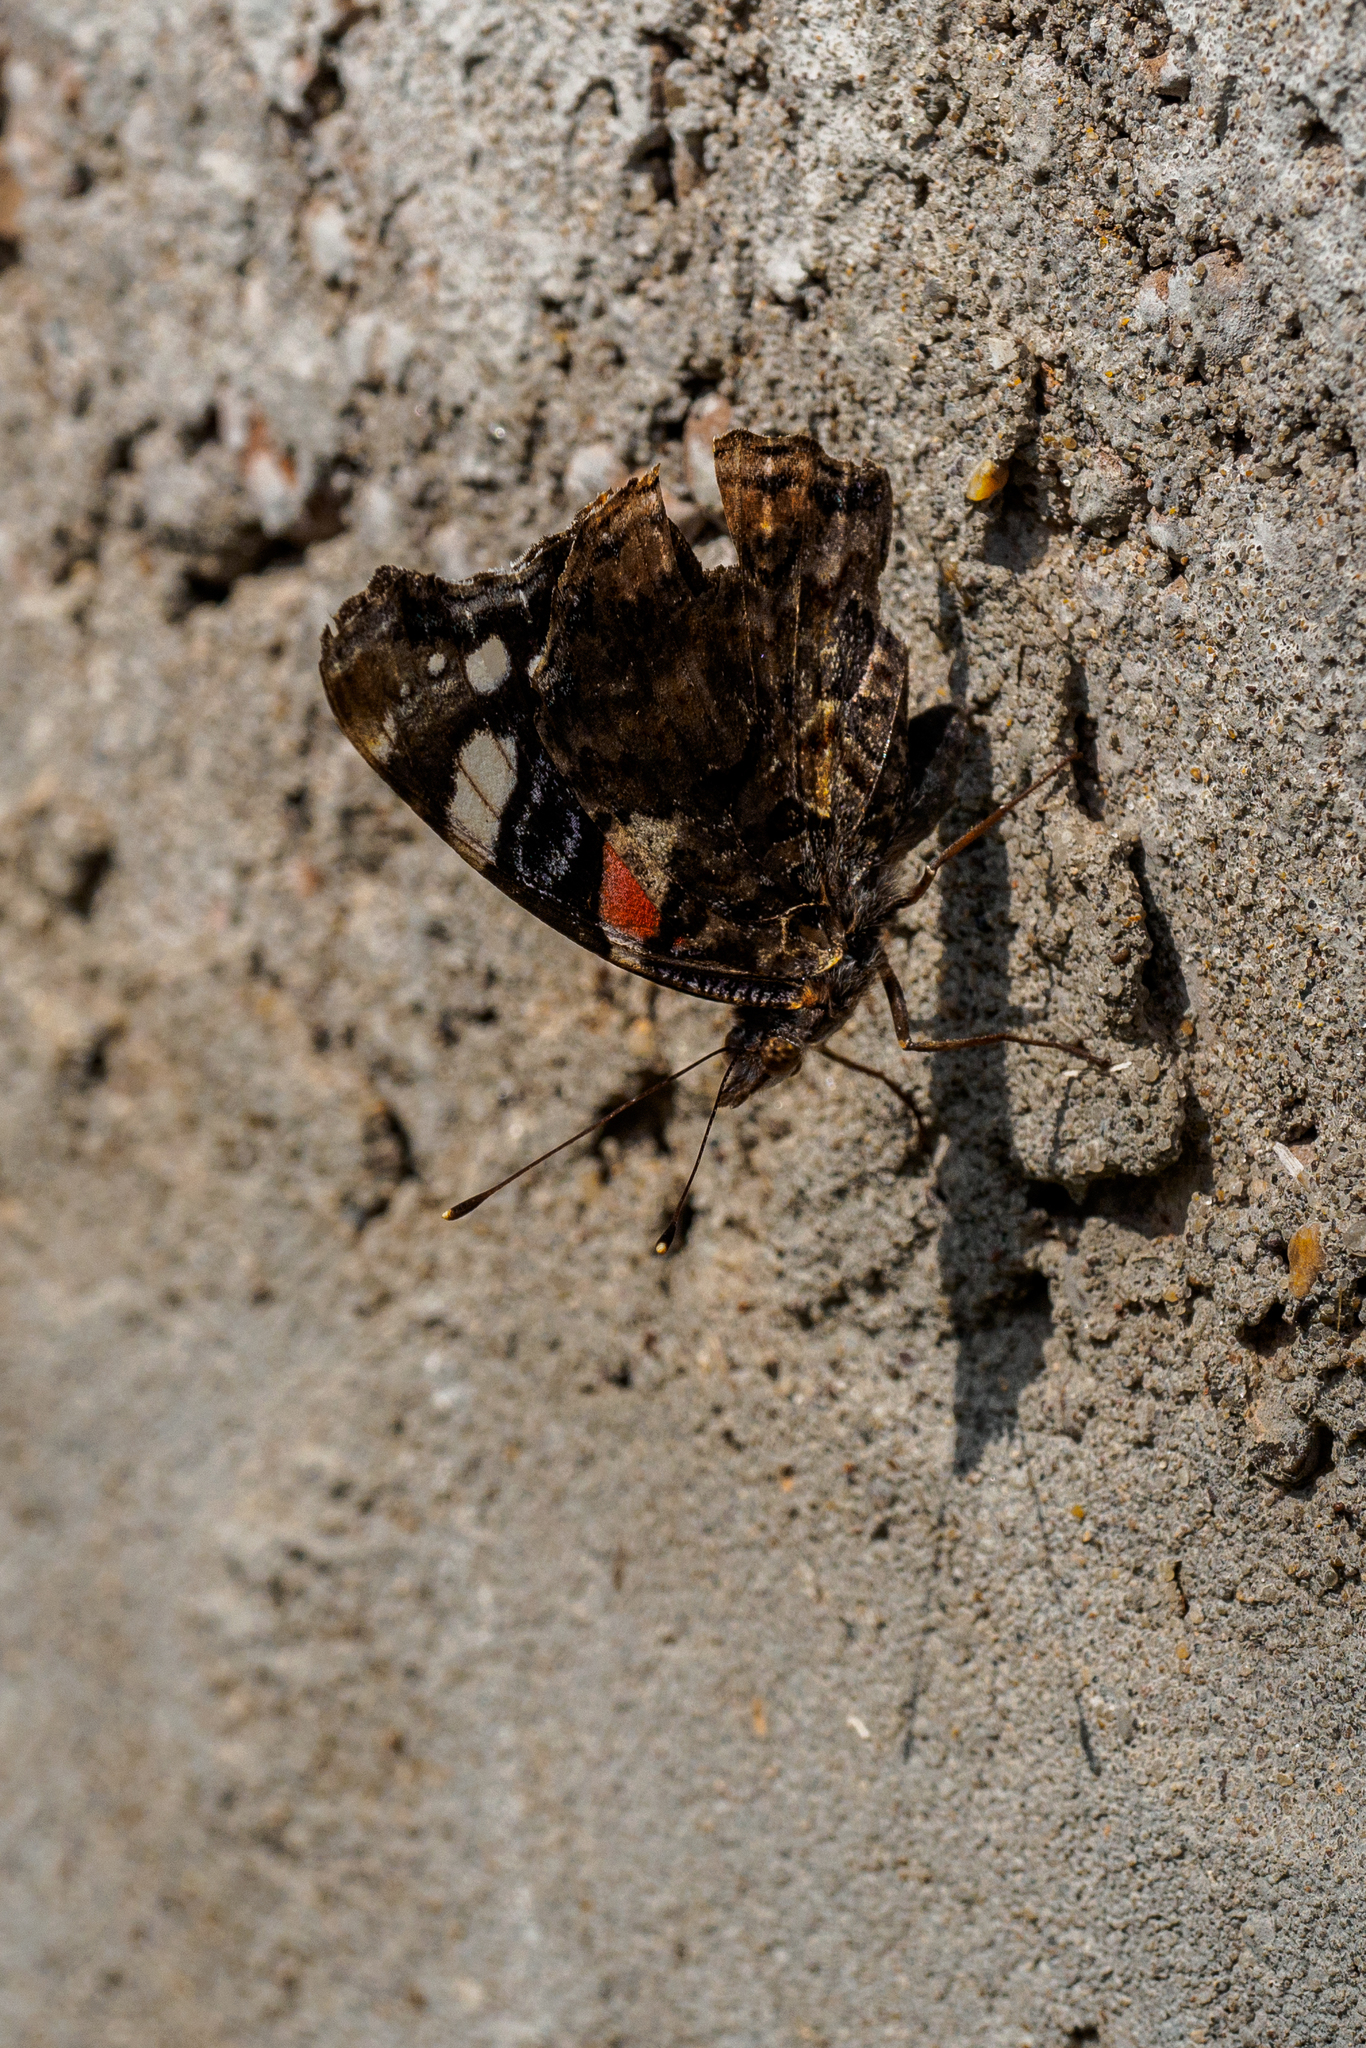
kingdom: Animalia
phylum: Arthropoda
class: Insecta
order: Lepidoptera
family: Nymphalidae
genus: Vanessa
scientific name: Vanessa atalanta
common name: Red admiral
